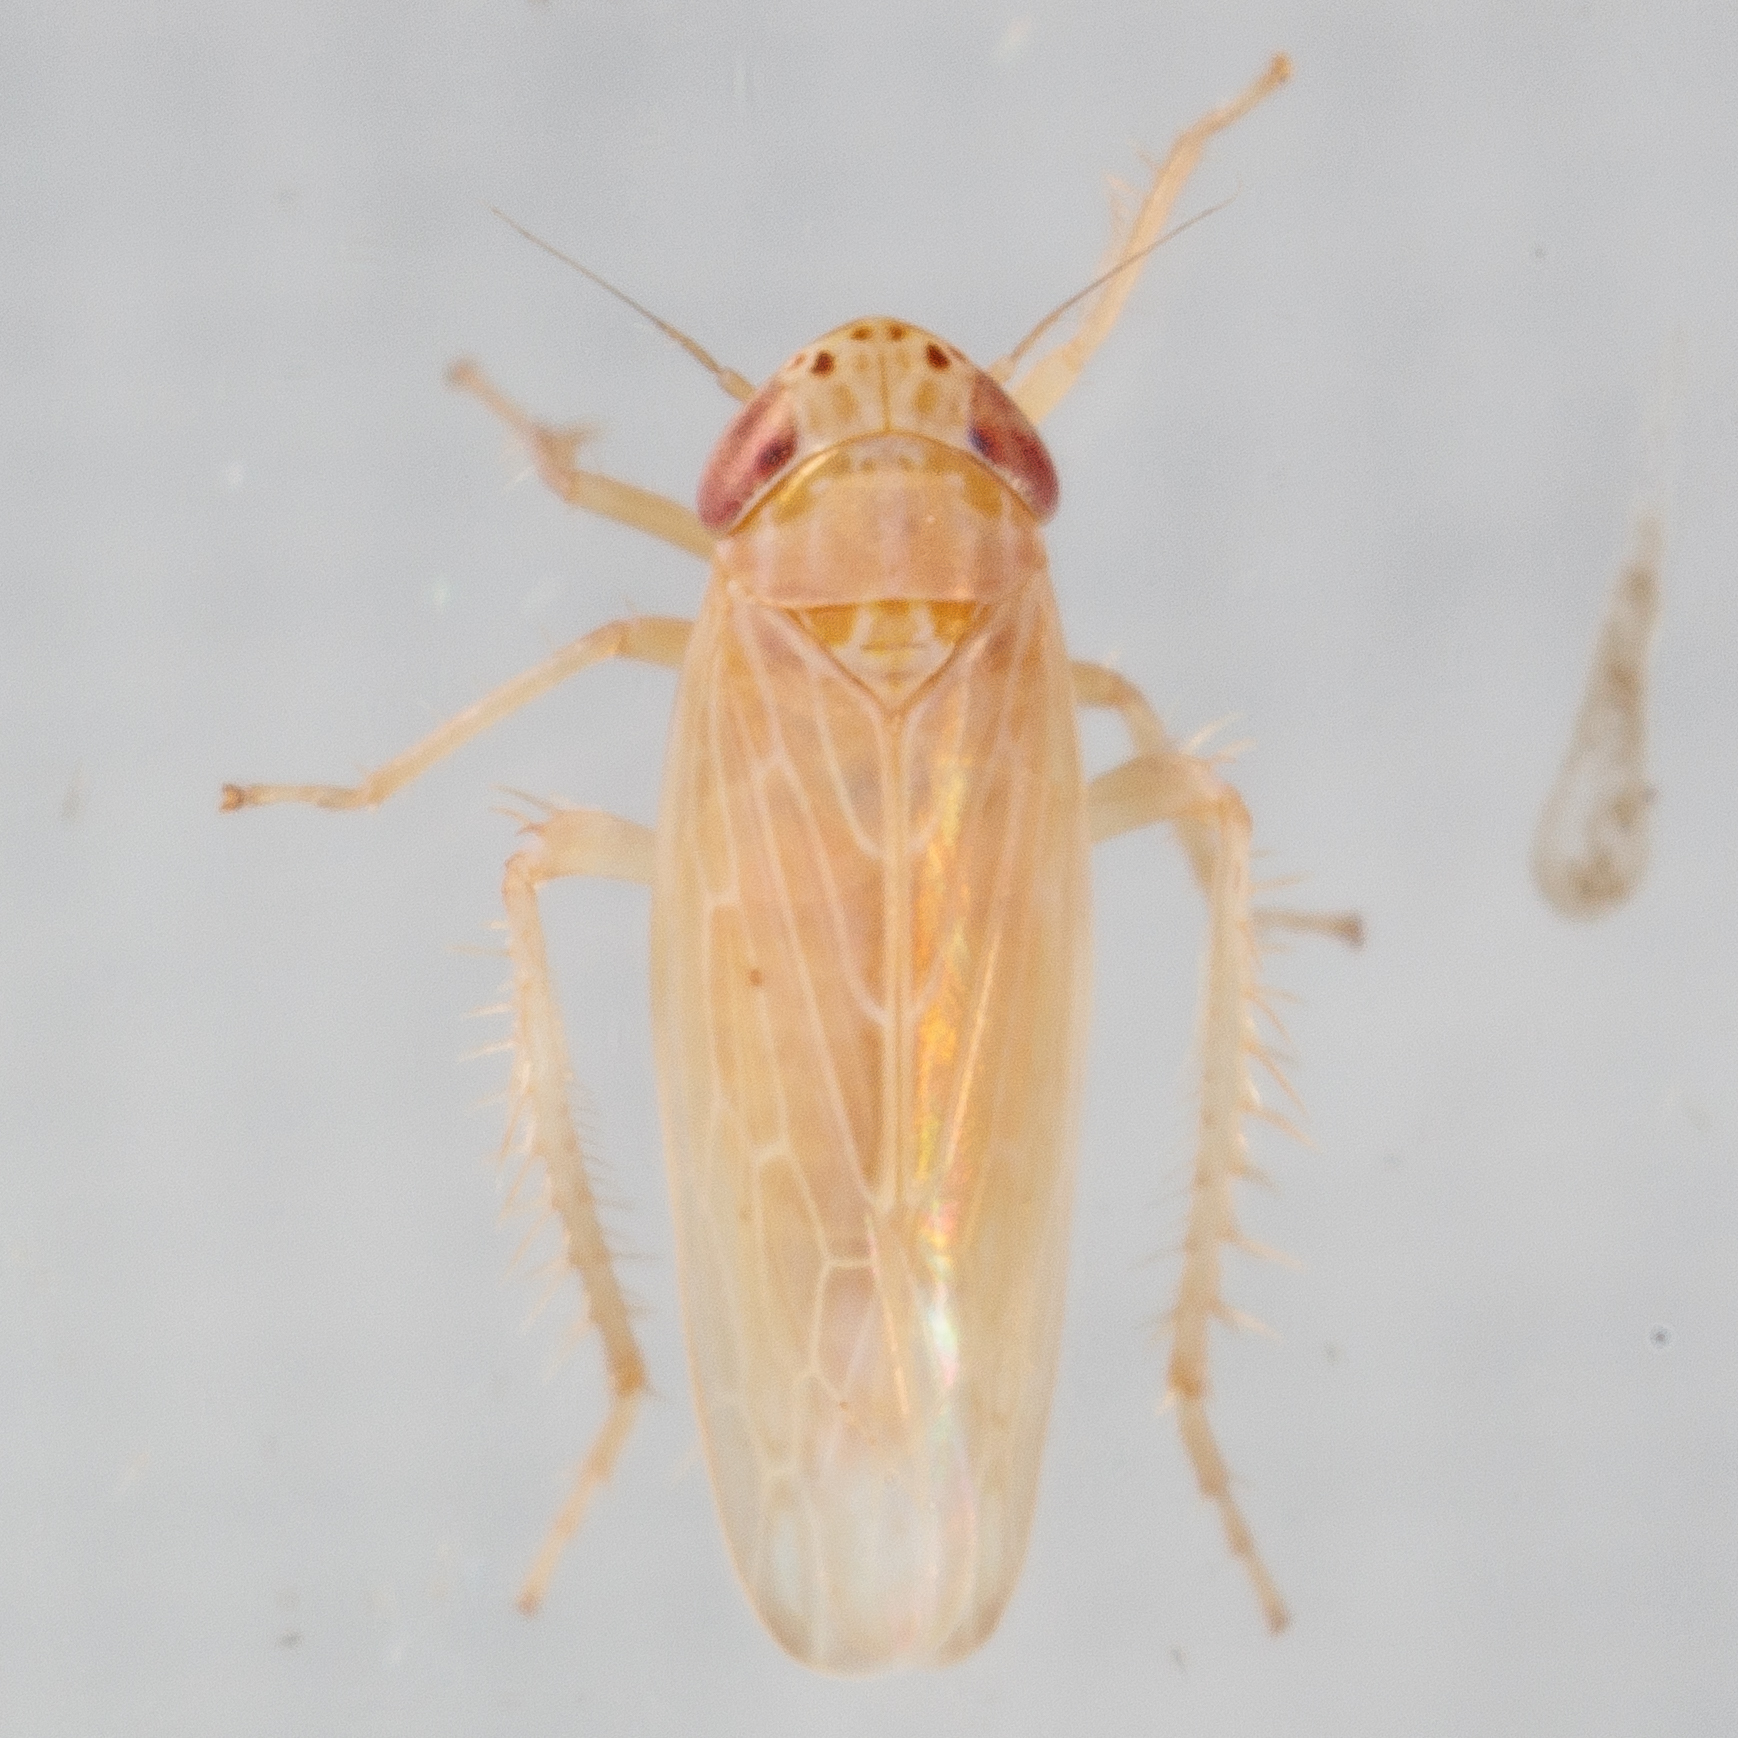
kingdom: Animalia
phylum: Arthropoda
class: Insecta
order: Hemiptera
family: Cicadellidae
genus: Graminella
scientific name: Graminella sonora
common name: Lesser lawn leafhopper
